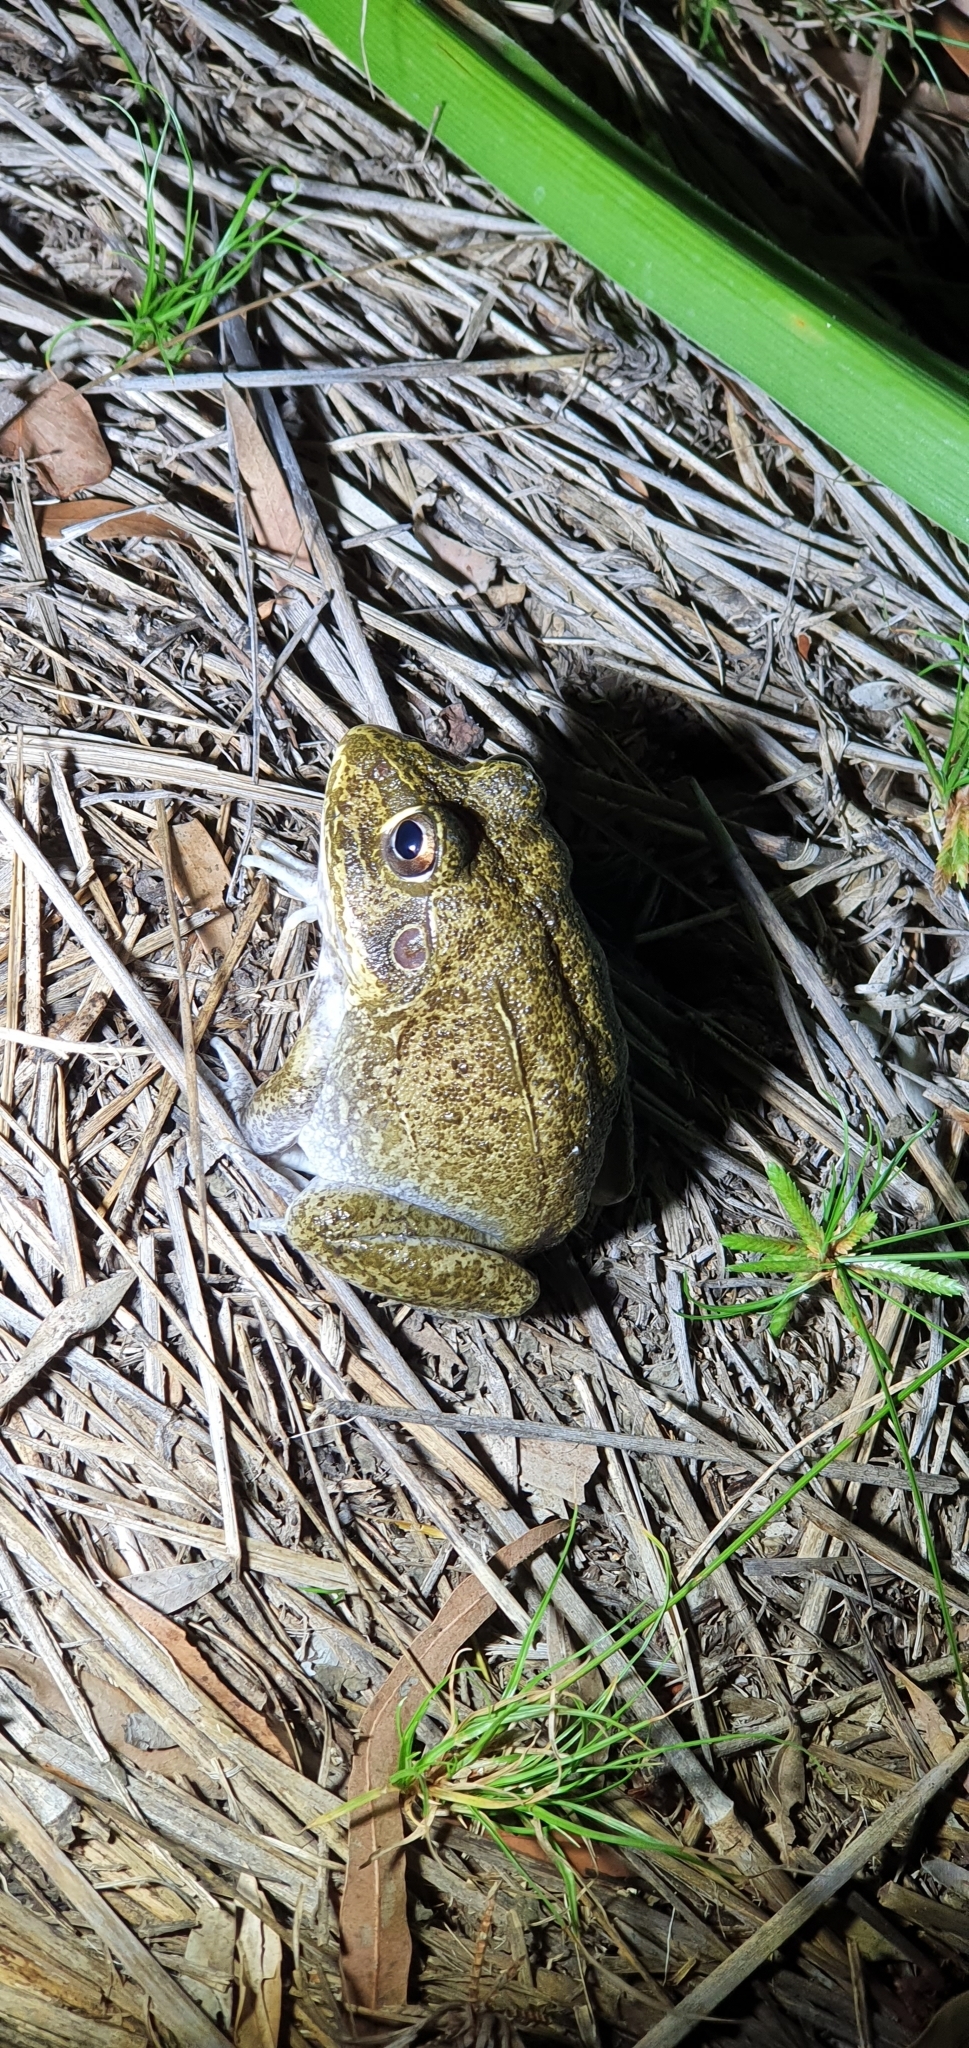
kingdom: Animalia
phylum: Chordata
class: Amphibia
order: Anura
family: Pelodryadidae
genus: Ranoidea
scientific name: Ranoidea novaehollandiae
